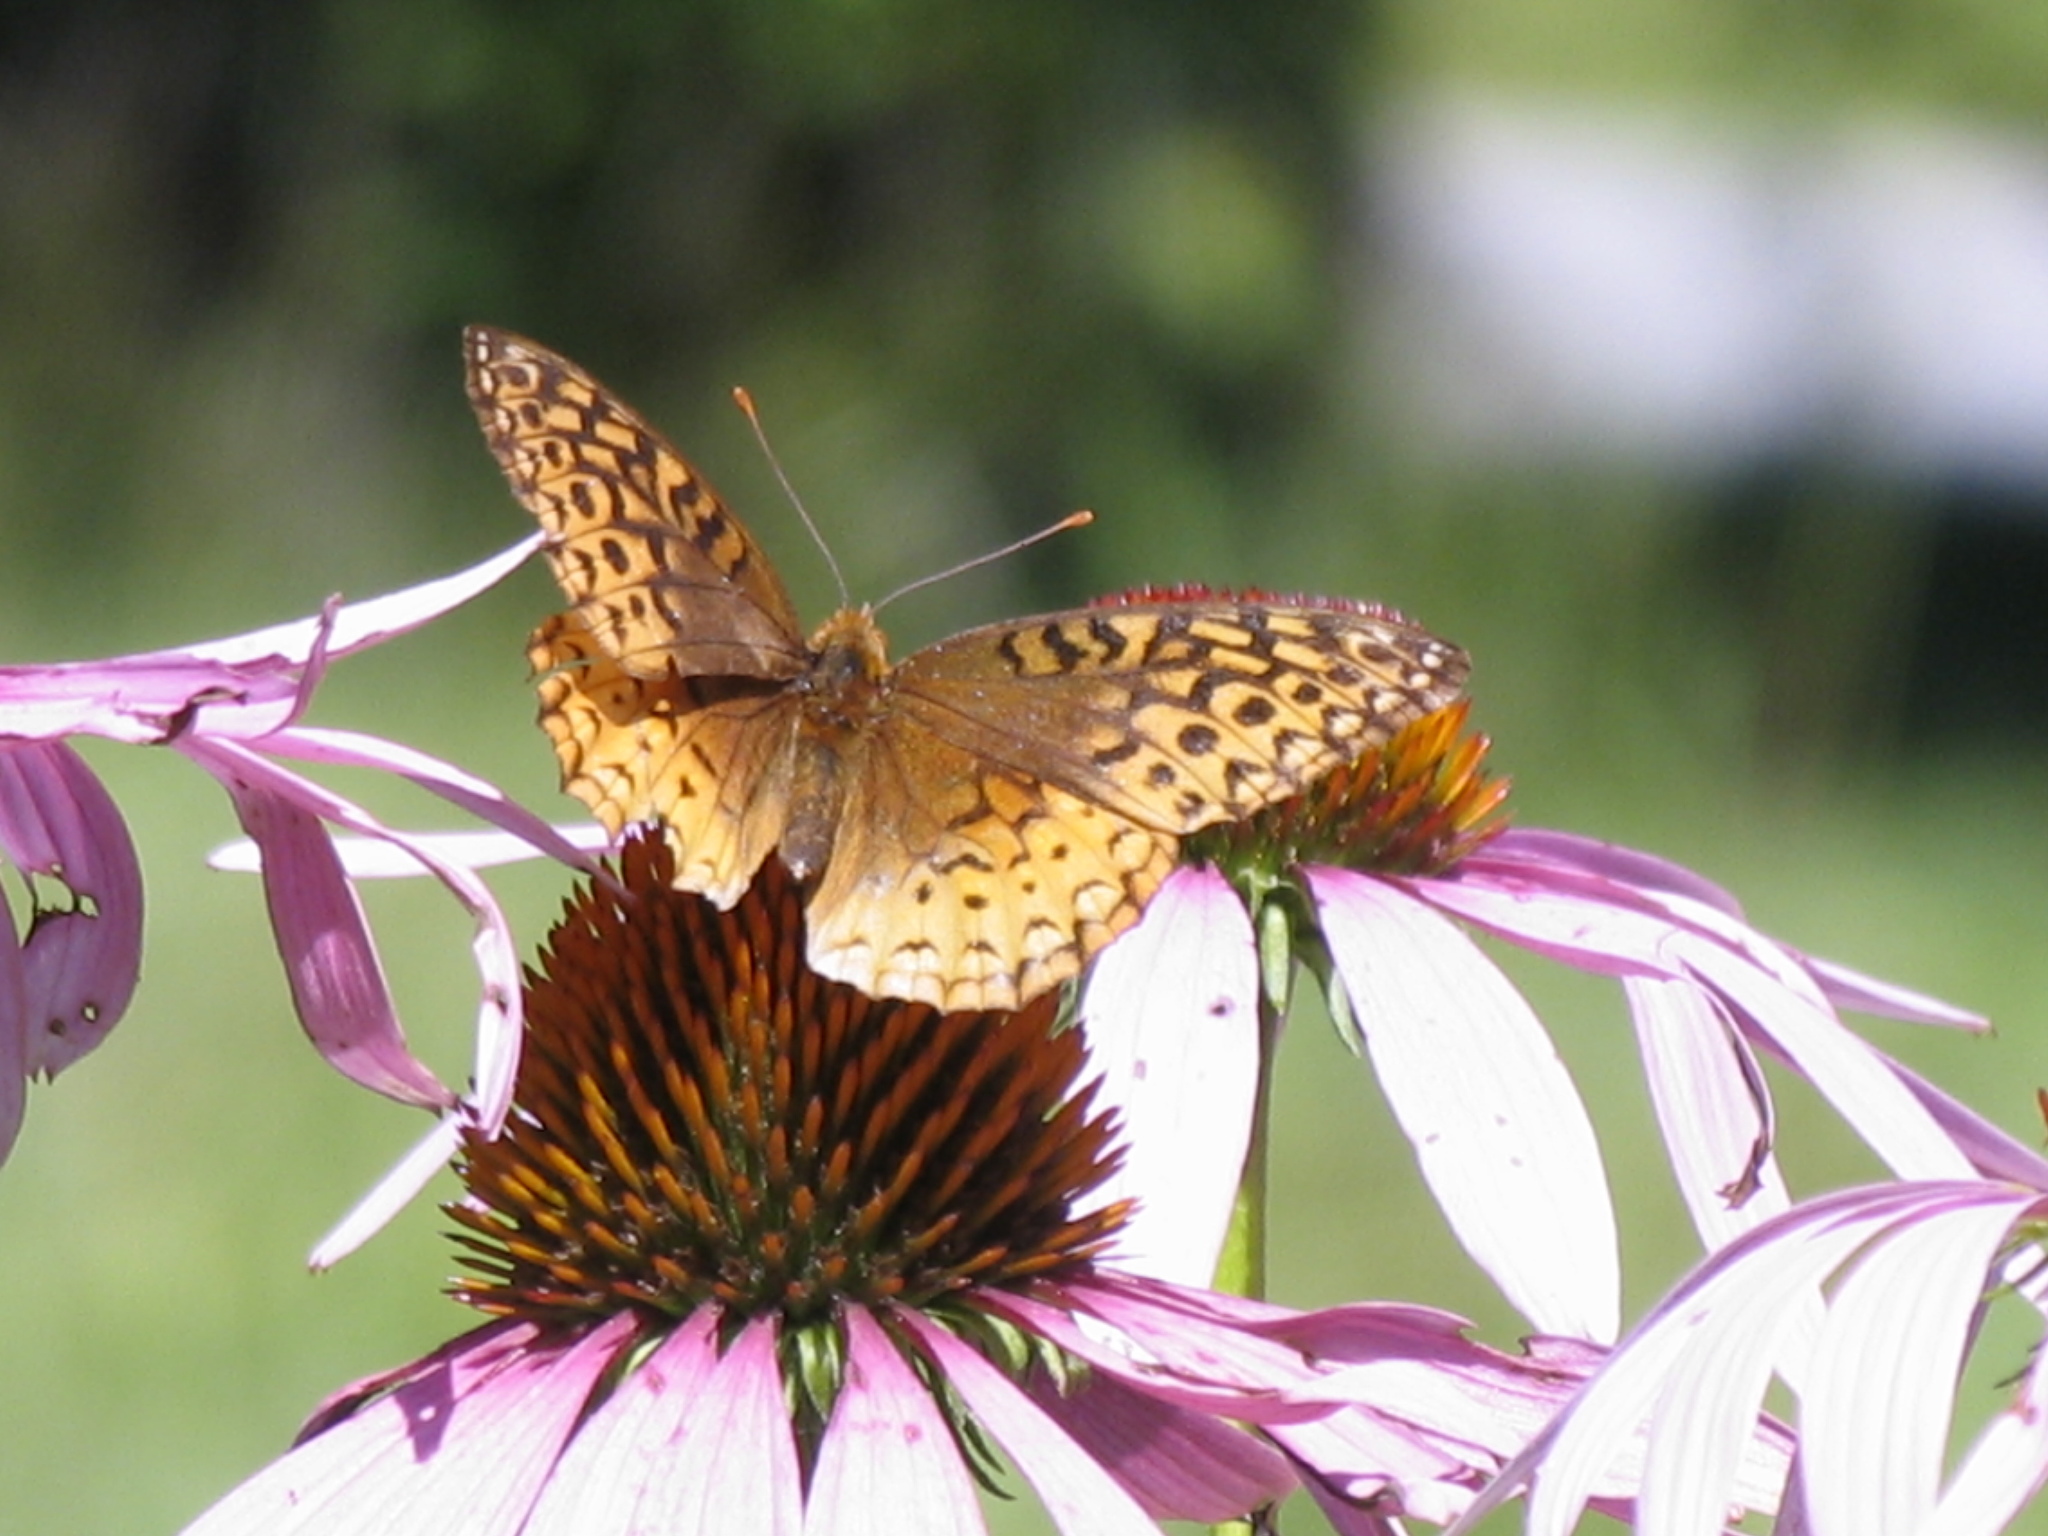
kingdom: Animalia
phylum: Arthropoda
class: Insecta
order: Lepidoptera
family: Nymphalidae
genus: Speyeria
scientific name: Speyeria cybele
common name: Great spangled fritillary
